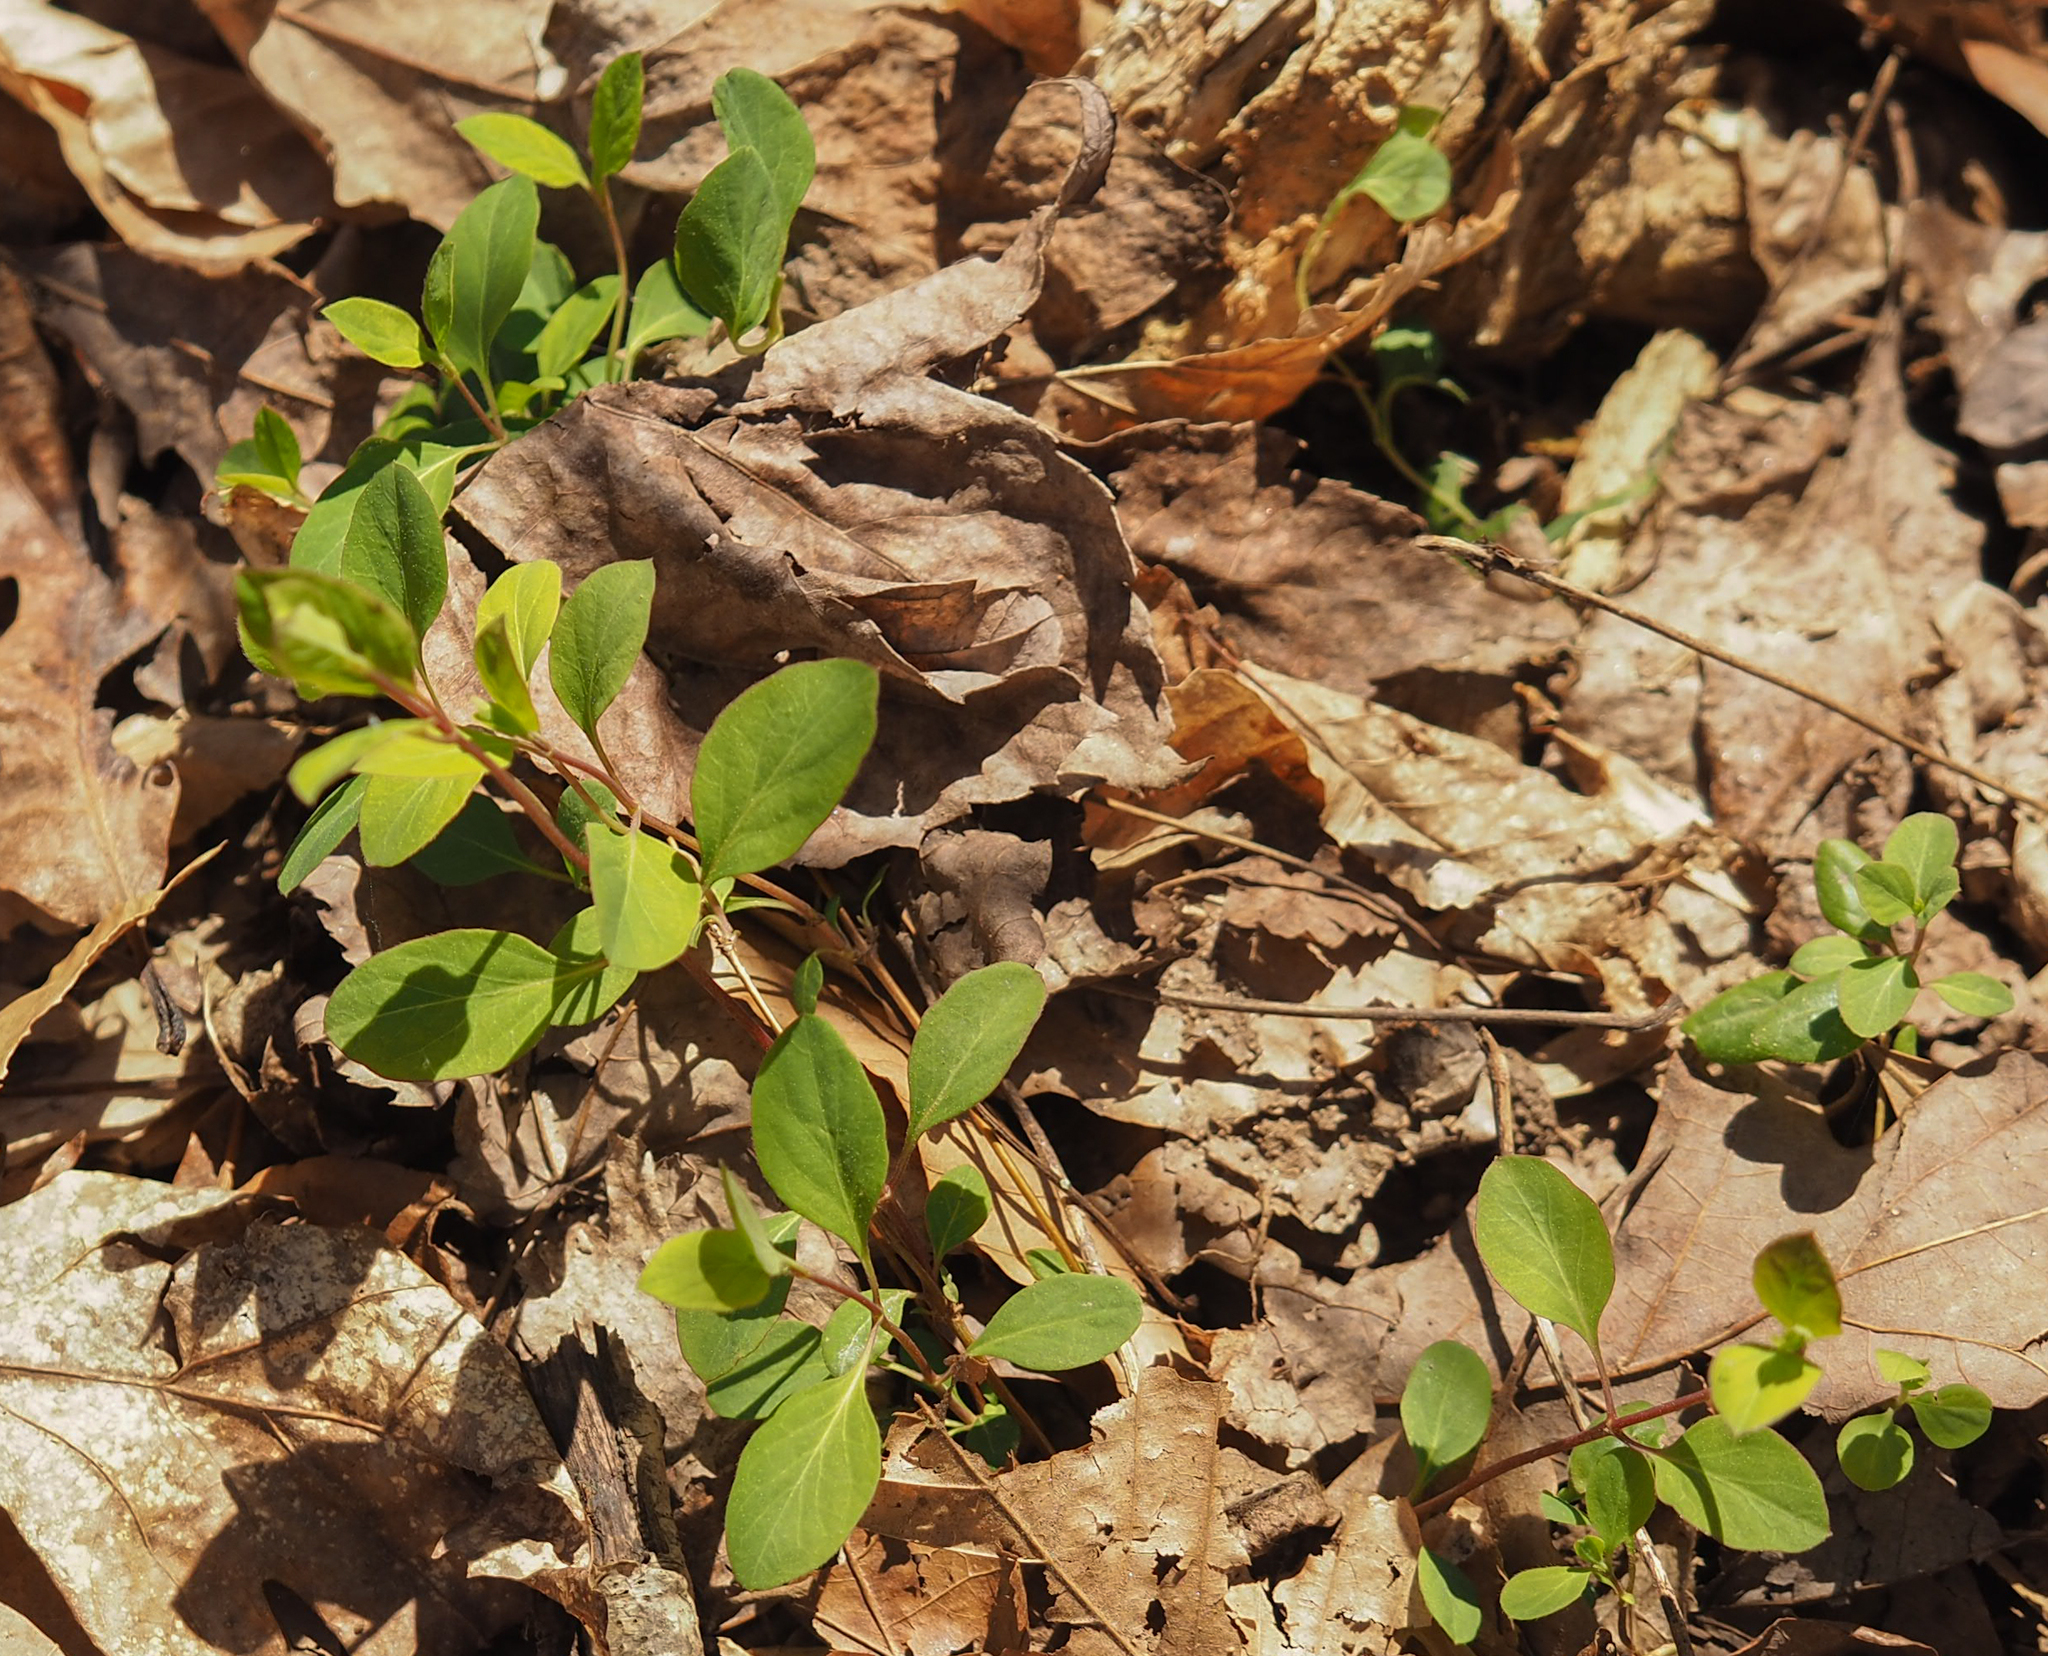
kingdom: Plantae
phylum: Tracheophyta
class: Magnoliopsida
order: Dipsacales
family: Caprifoliaceae
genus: Lonicera
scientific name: Lonicera japonica
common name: Japanese honeysuckle
